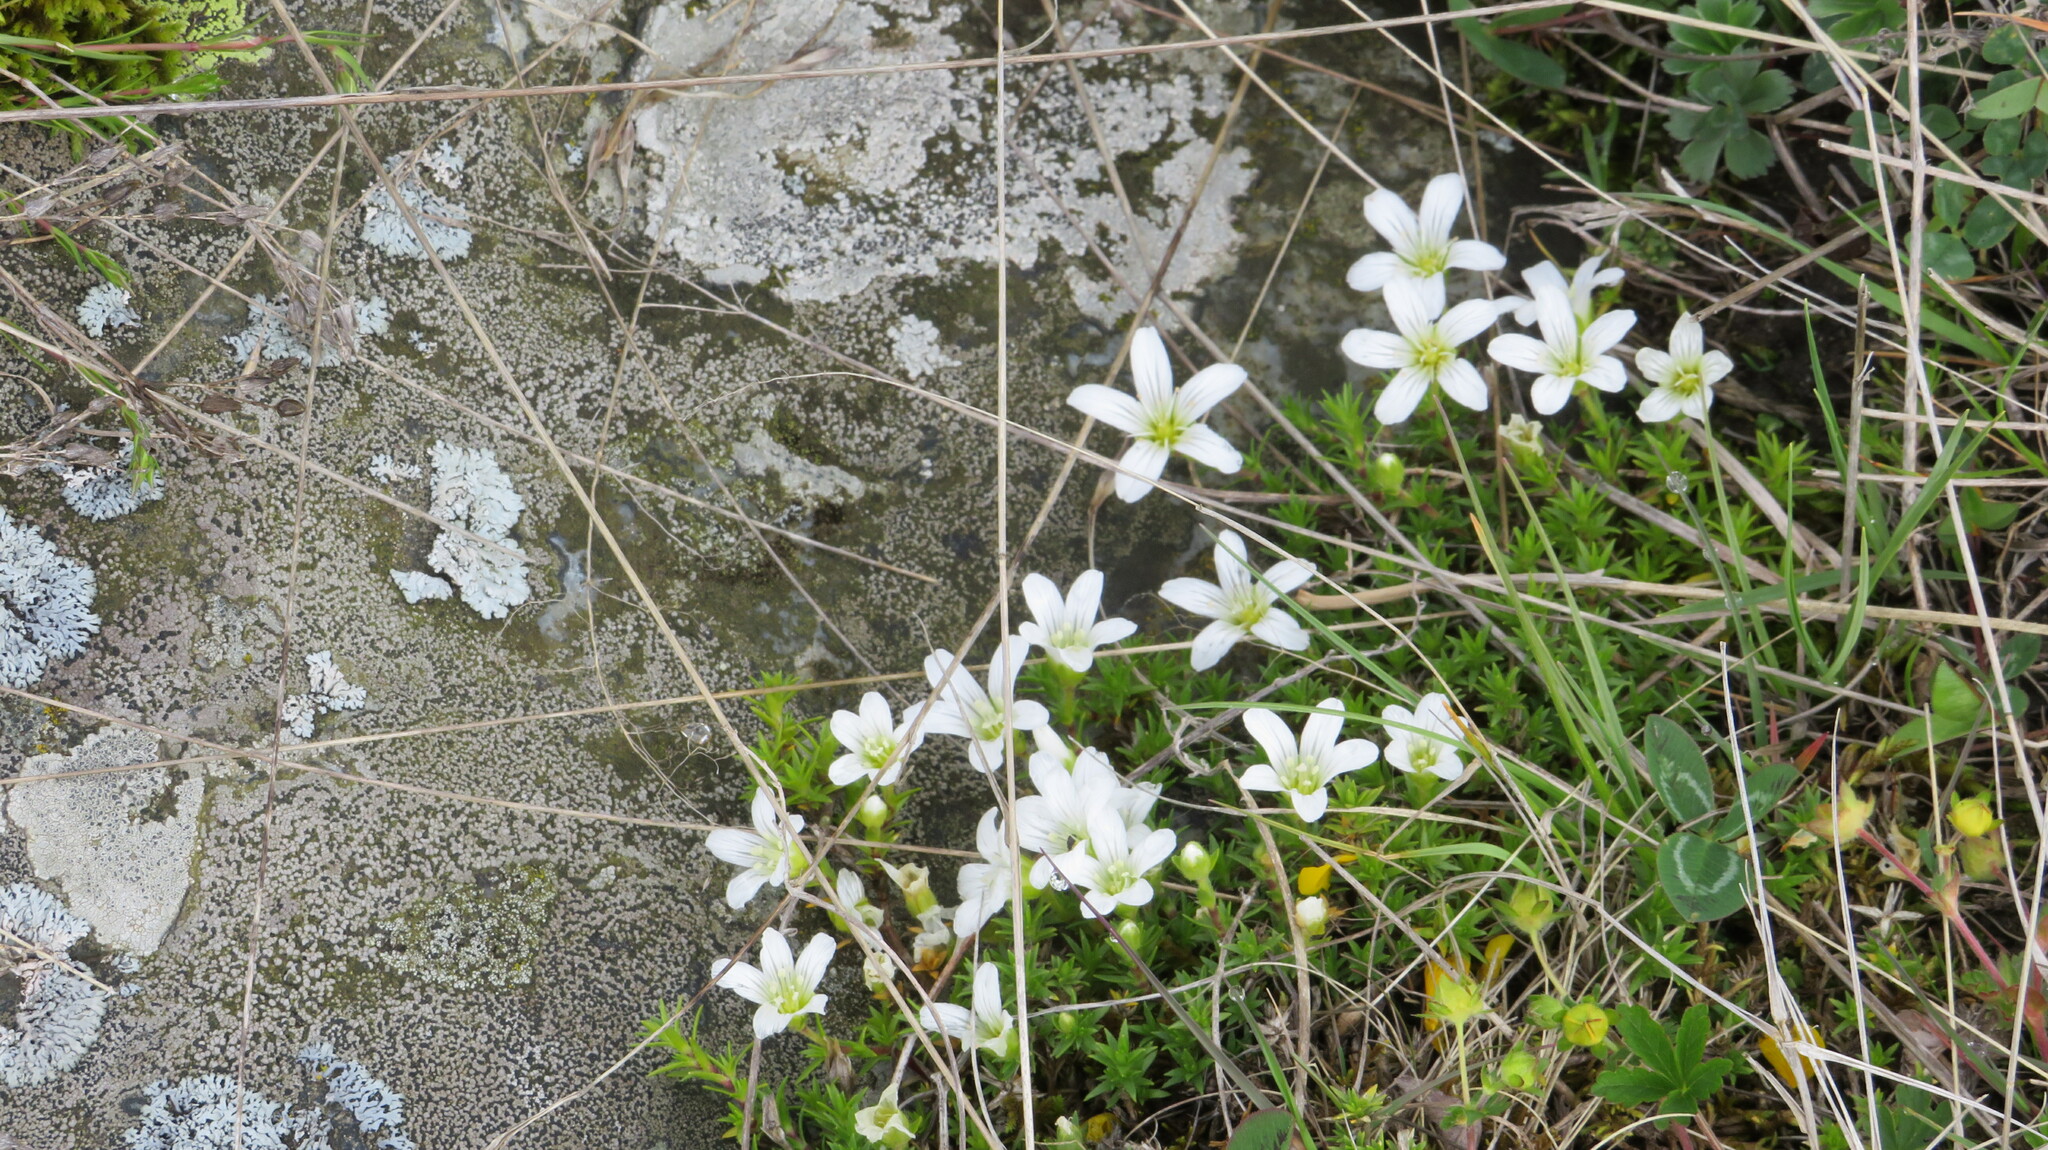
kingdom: Plantae
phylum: Tracheophyta
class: Magnoliopsida
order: Caryophyllales
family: Caryophyllaceae
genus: Pseudocherleria
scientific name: Pseudocherleria imbricata
